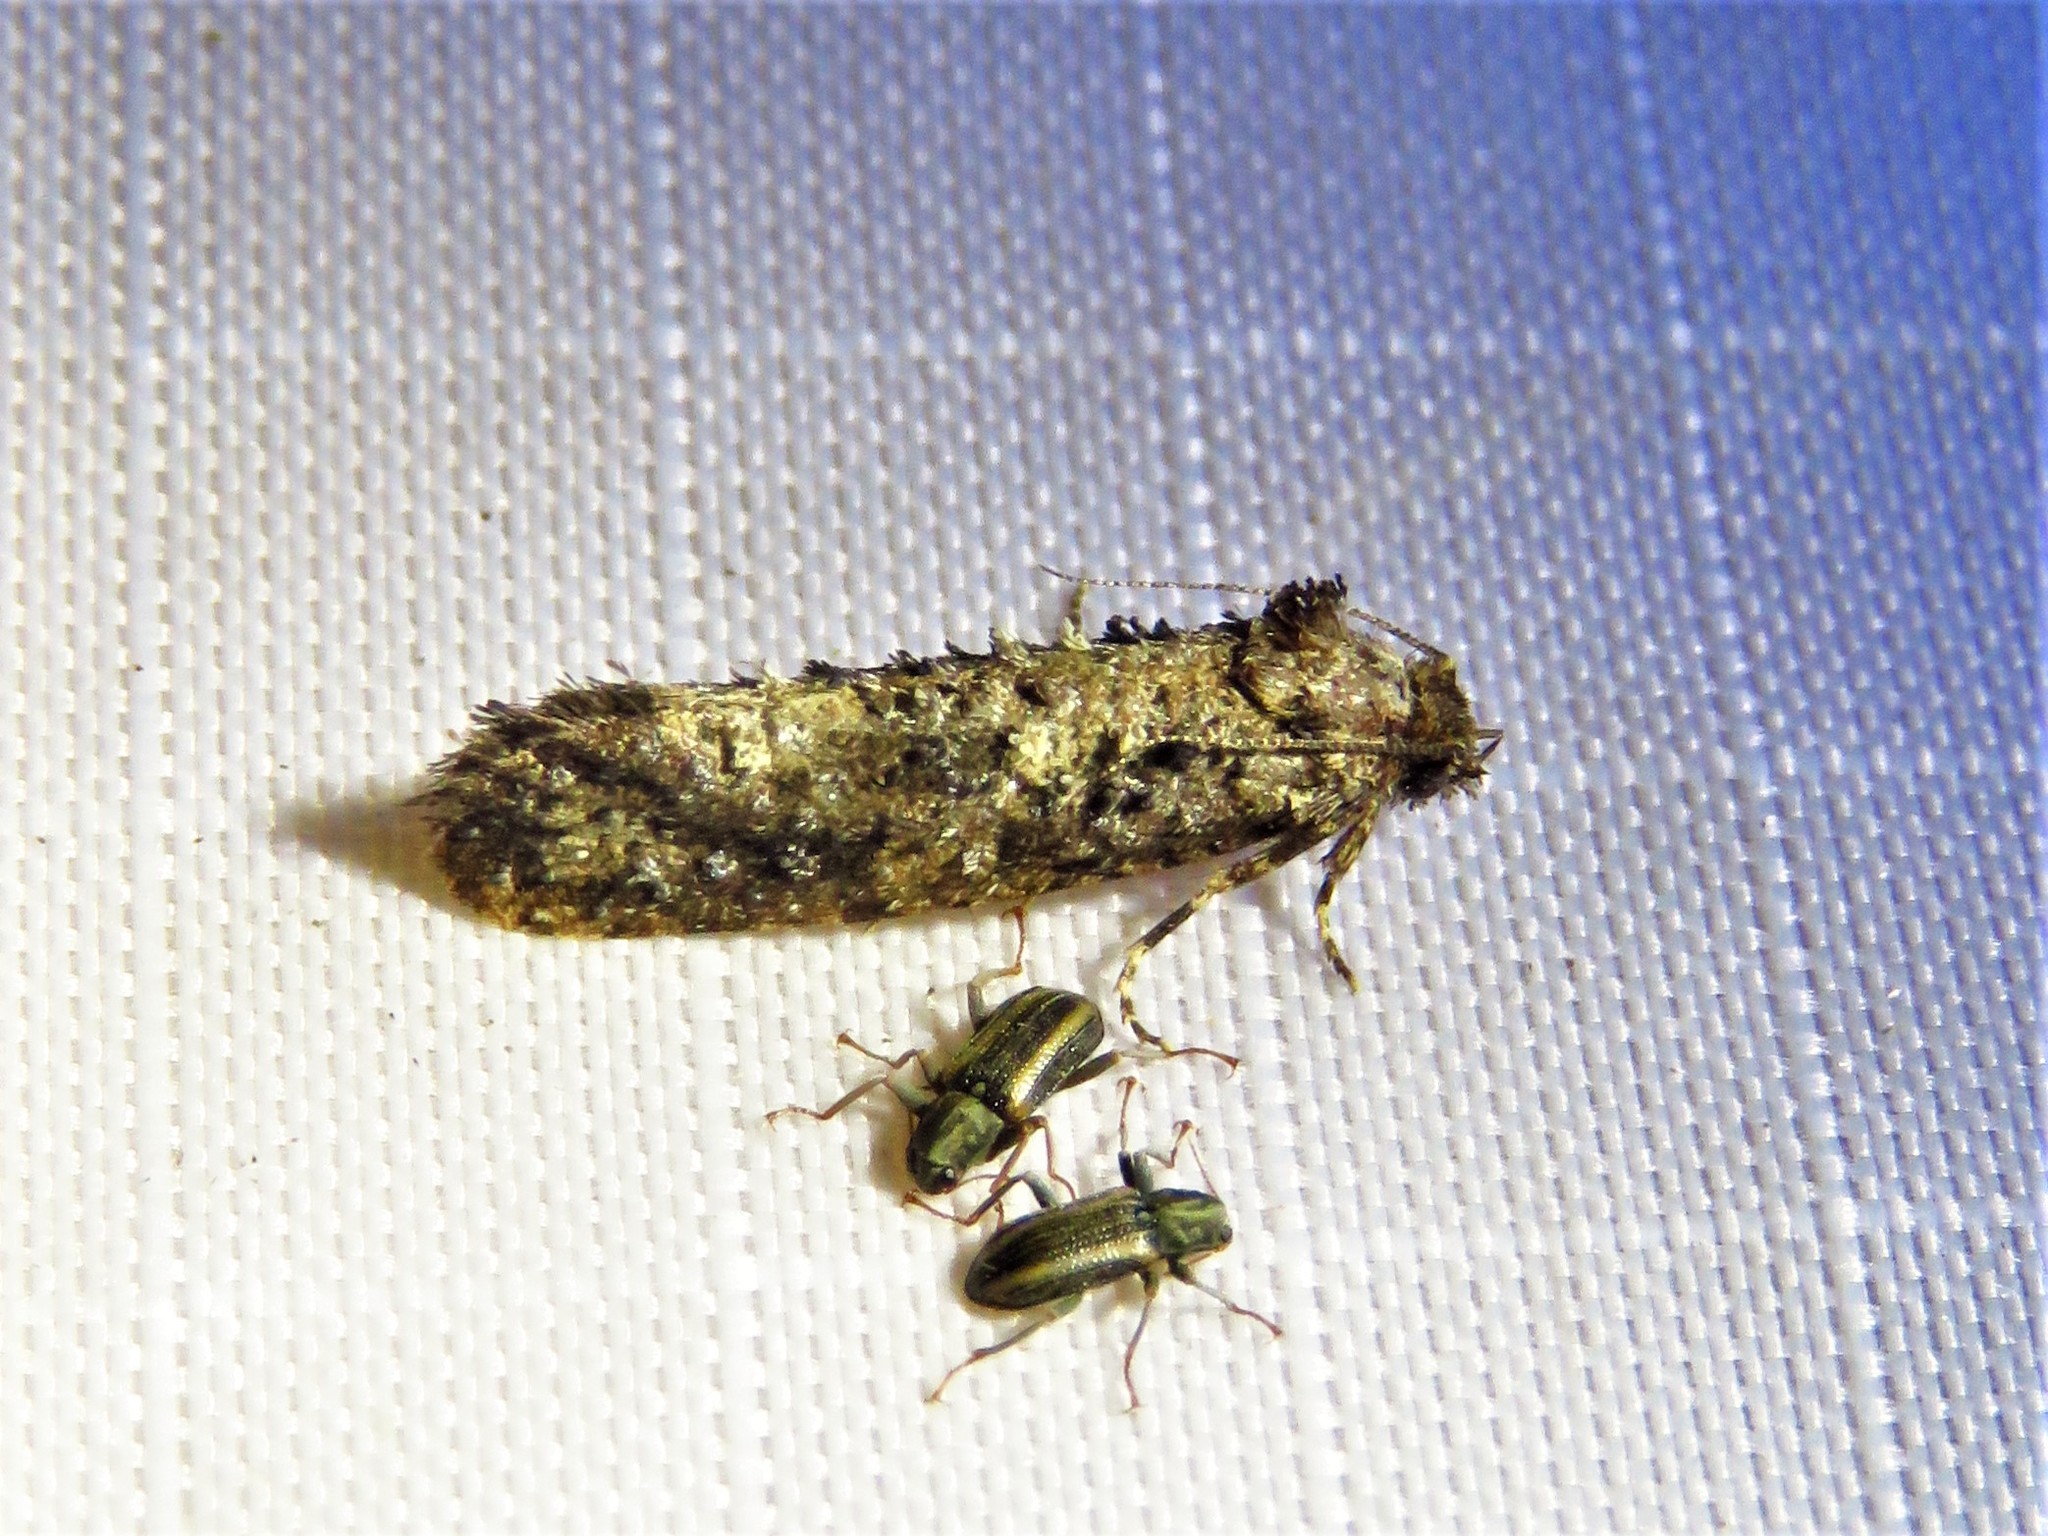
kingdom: Animalia
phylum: Arthropoda
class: Insecta
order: Lepidoptera
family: Tineidae
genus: Acrolophus
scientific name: Acrolophus cressoni
